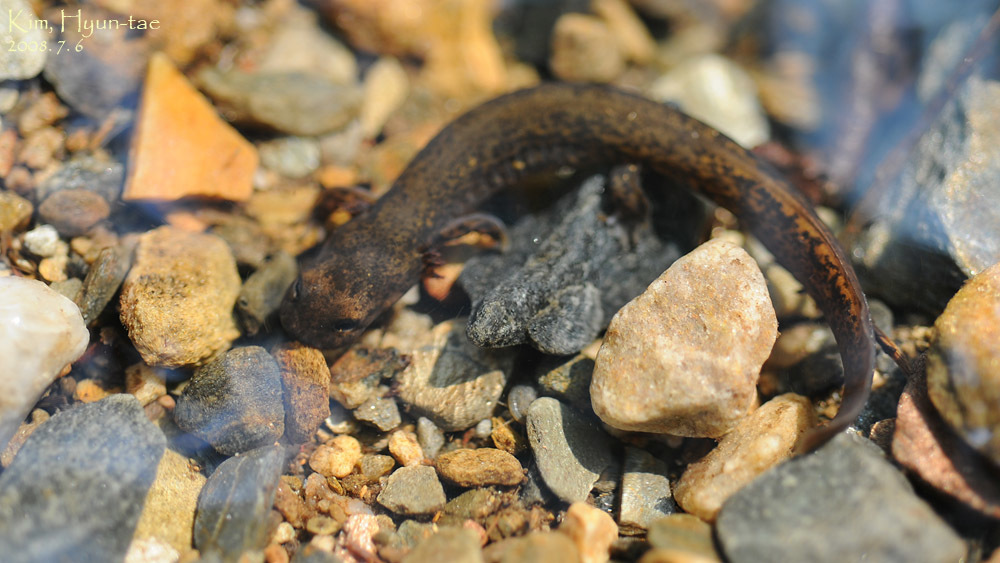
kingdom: Animalia
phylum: Chordata
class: Amphibia
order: Caudata
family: Hynobiidae
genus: Onychodactylus
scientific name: Onychodactylus koreanus
